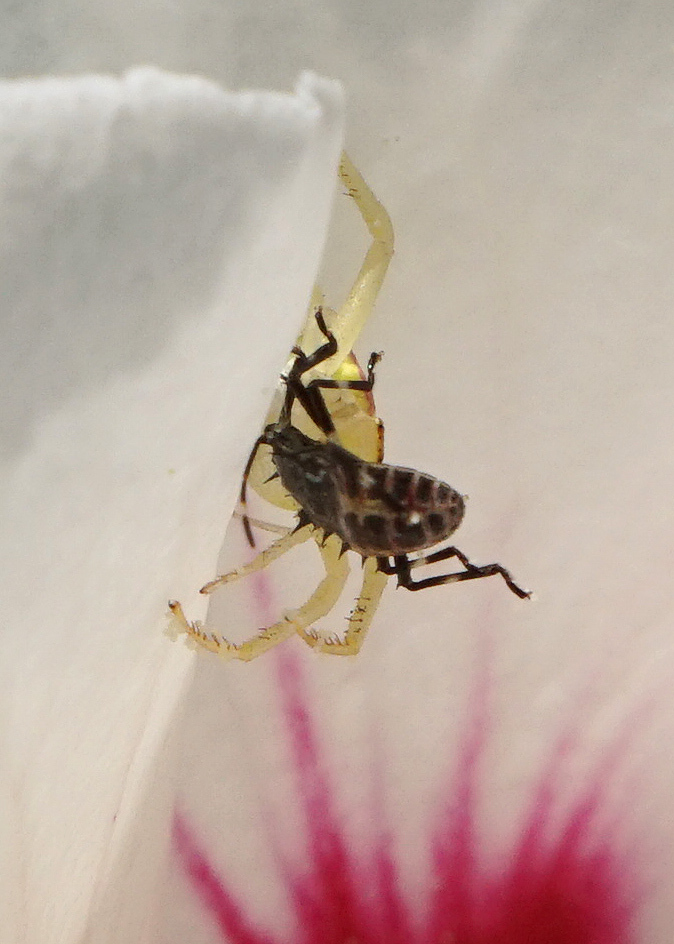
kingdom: Animalia
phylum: Arthropoda
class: Insecta
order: Hemiptera
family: Pentatomidae
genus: Halyomorpha
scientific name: Halyomorpha halys
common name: Brown marmorated stink bug
